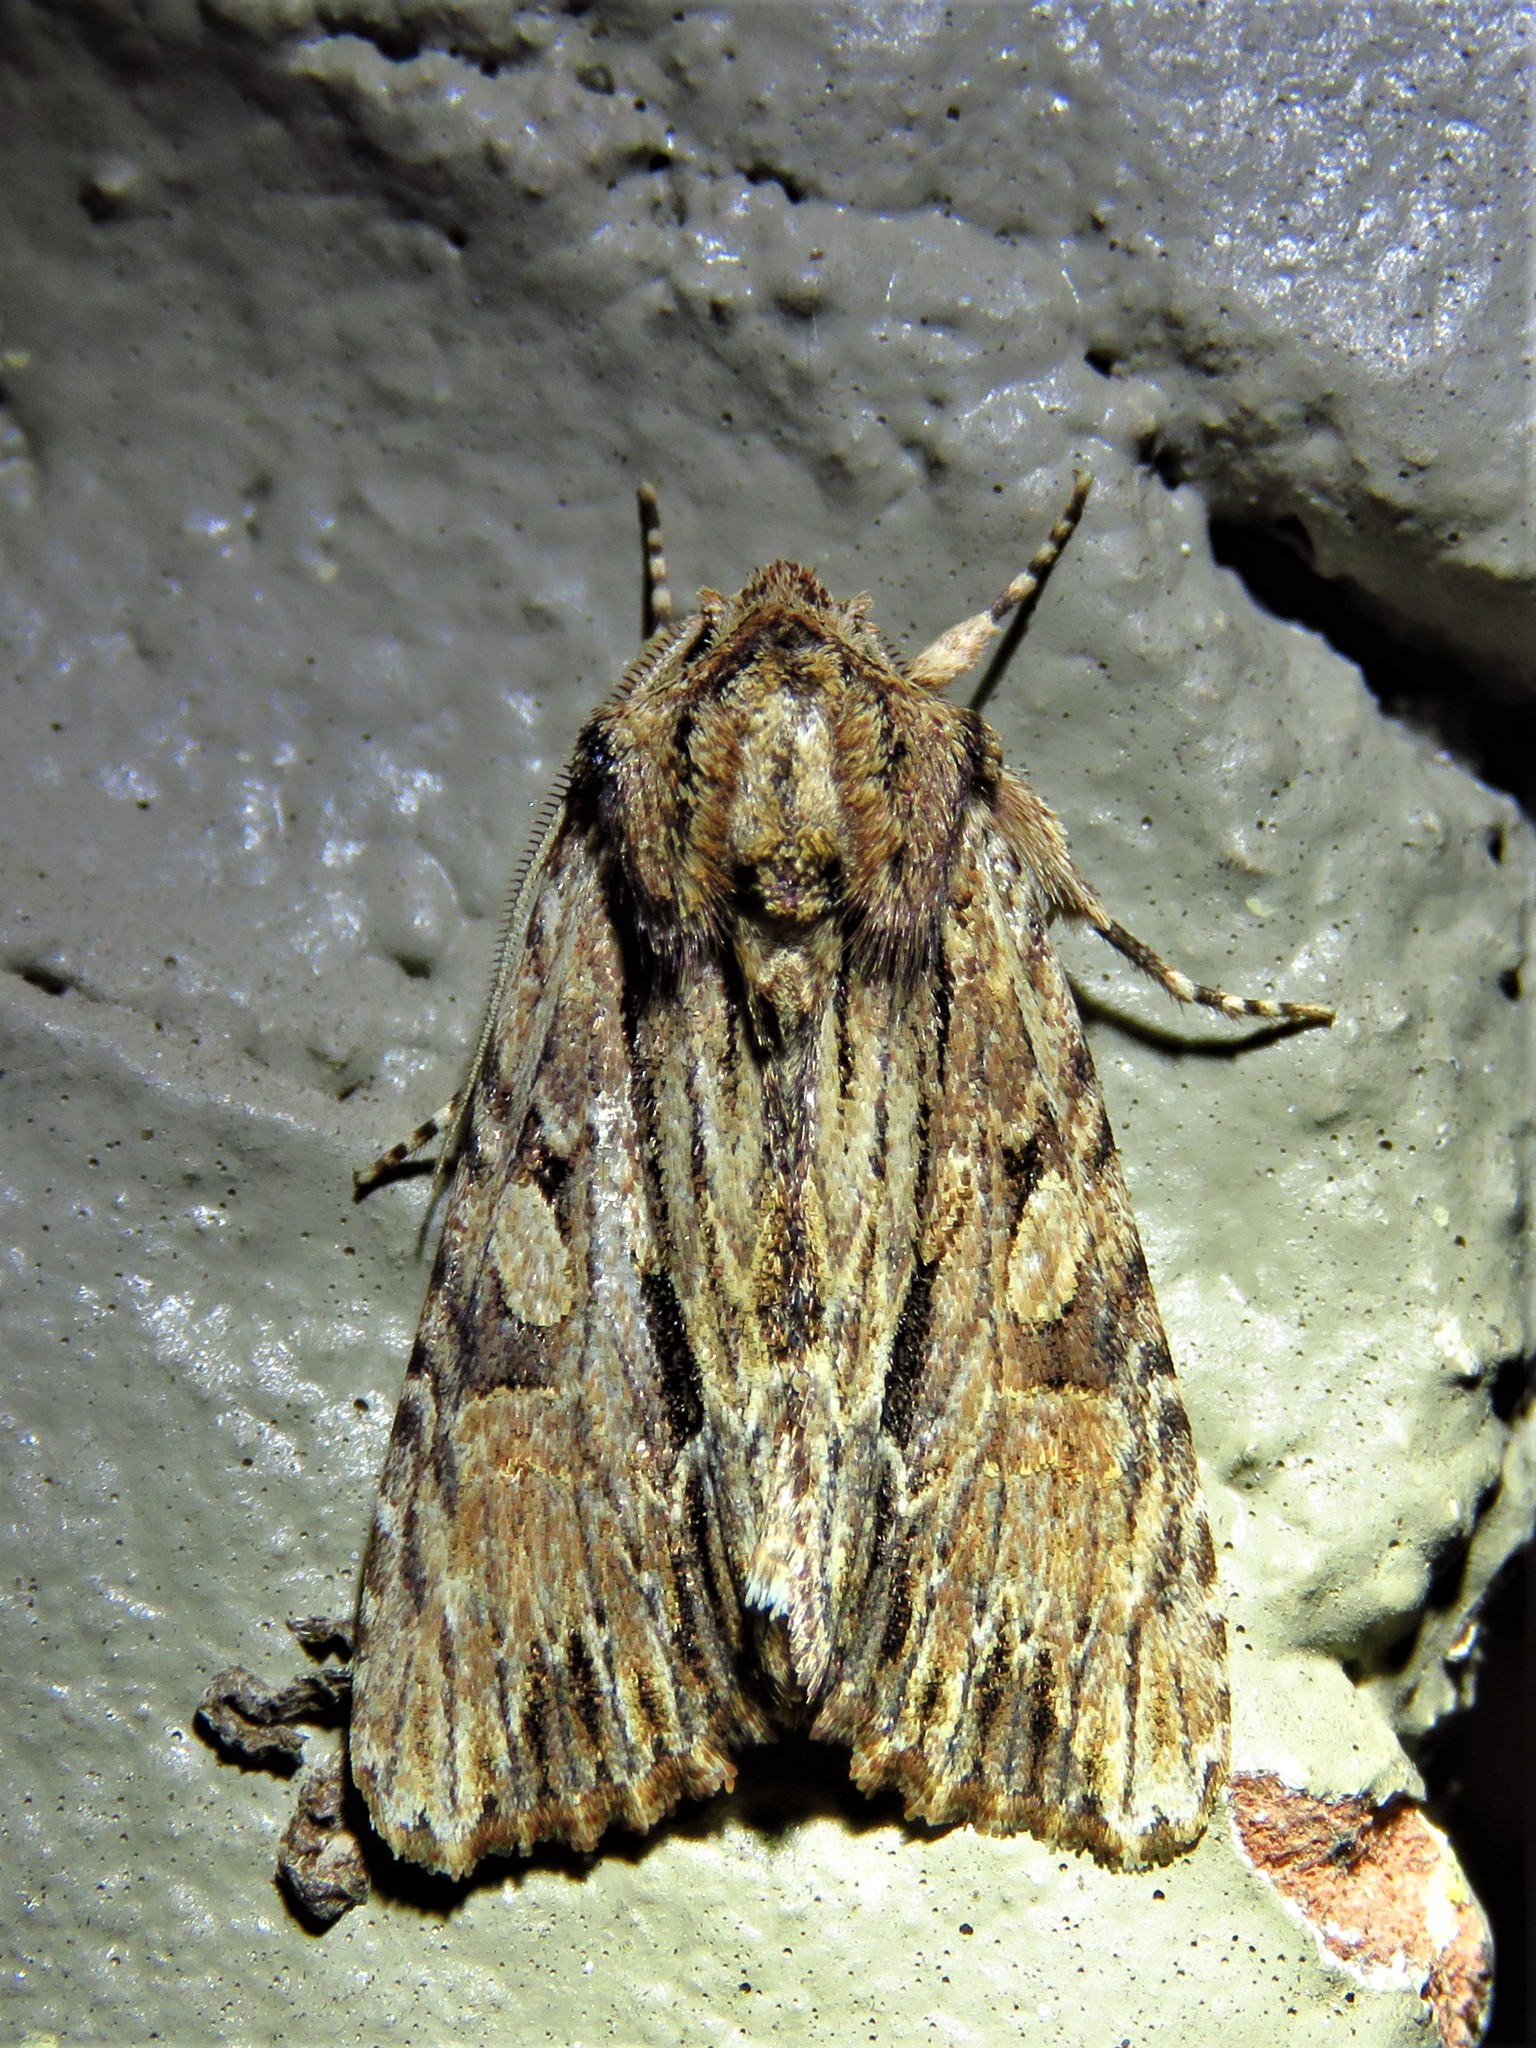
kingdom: Animalia
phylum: Arthropoda
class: Insecta
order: Lepidoptera
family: Noctuidae
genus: Achatia
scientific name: Achatia mucens
